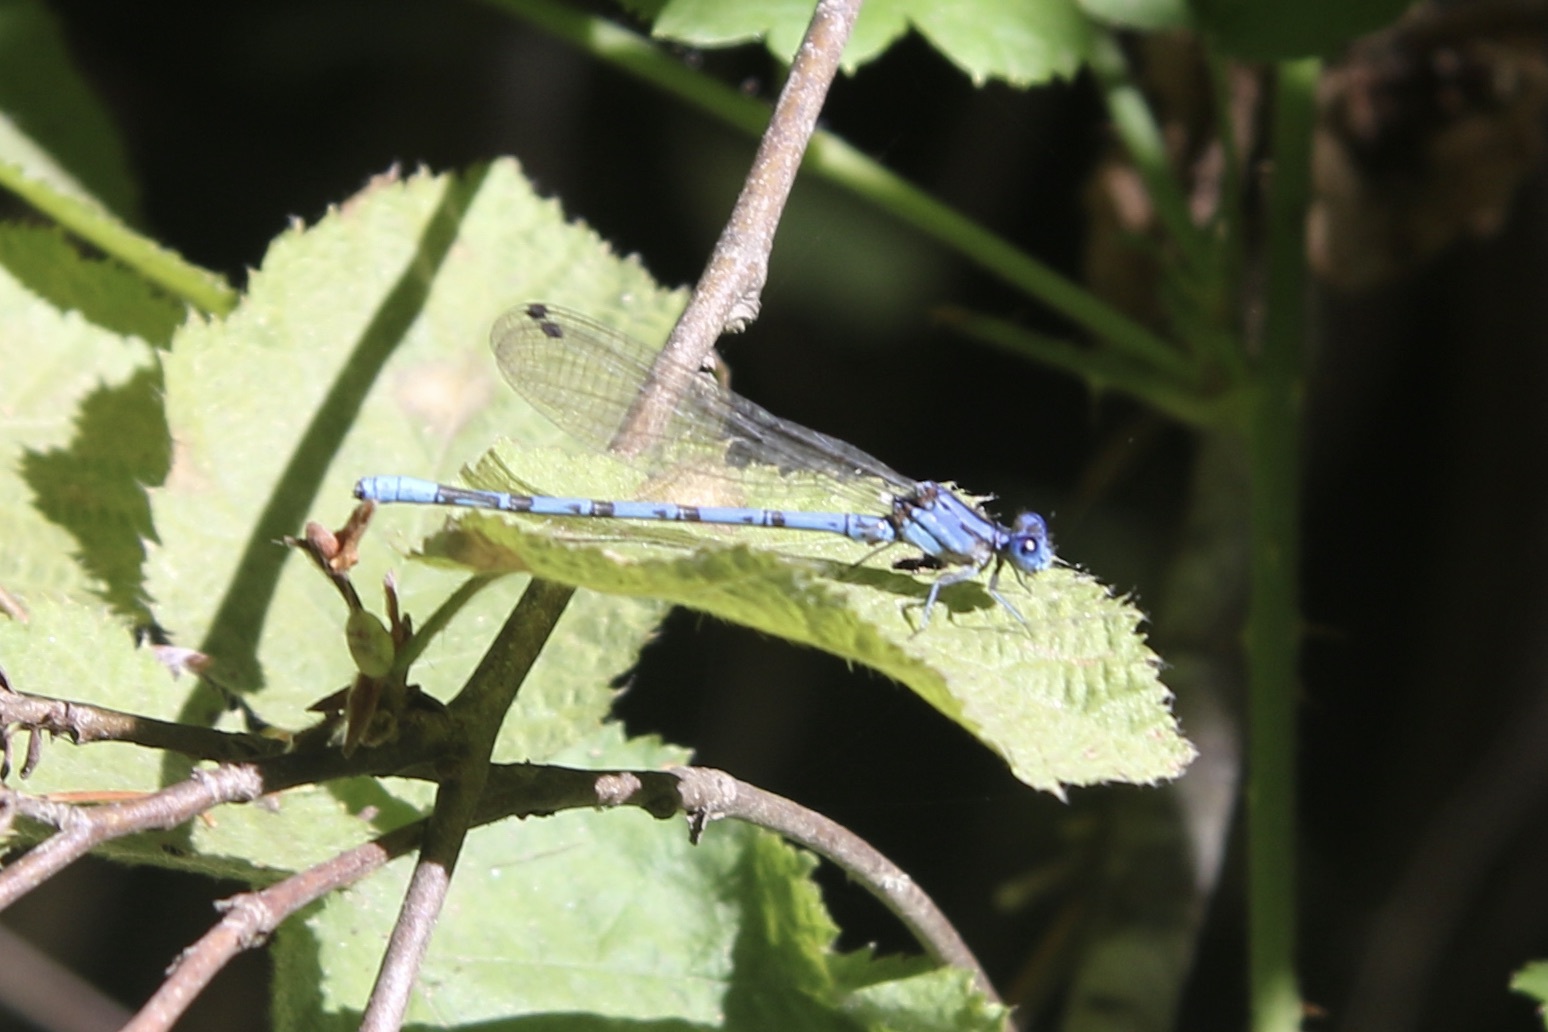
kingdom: Animalia
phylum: Arthropoda
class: Insecta
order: Odonata
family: Coenagrionidae
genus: Argia
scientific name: Argia vivida
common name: Vivid dancer
